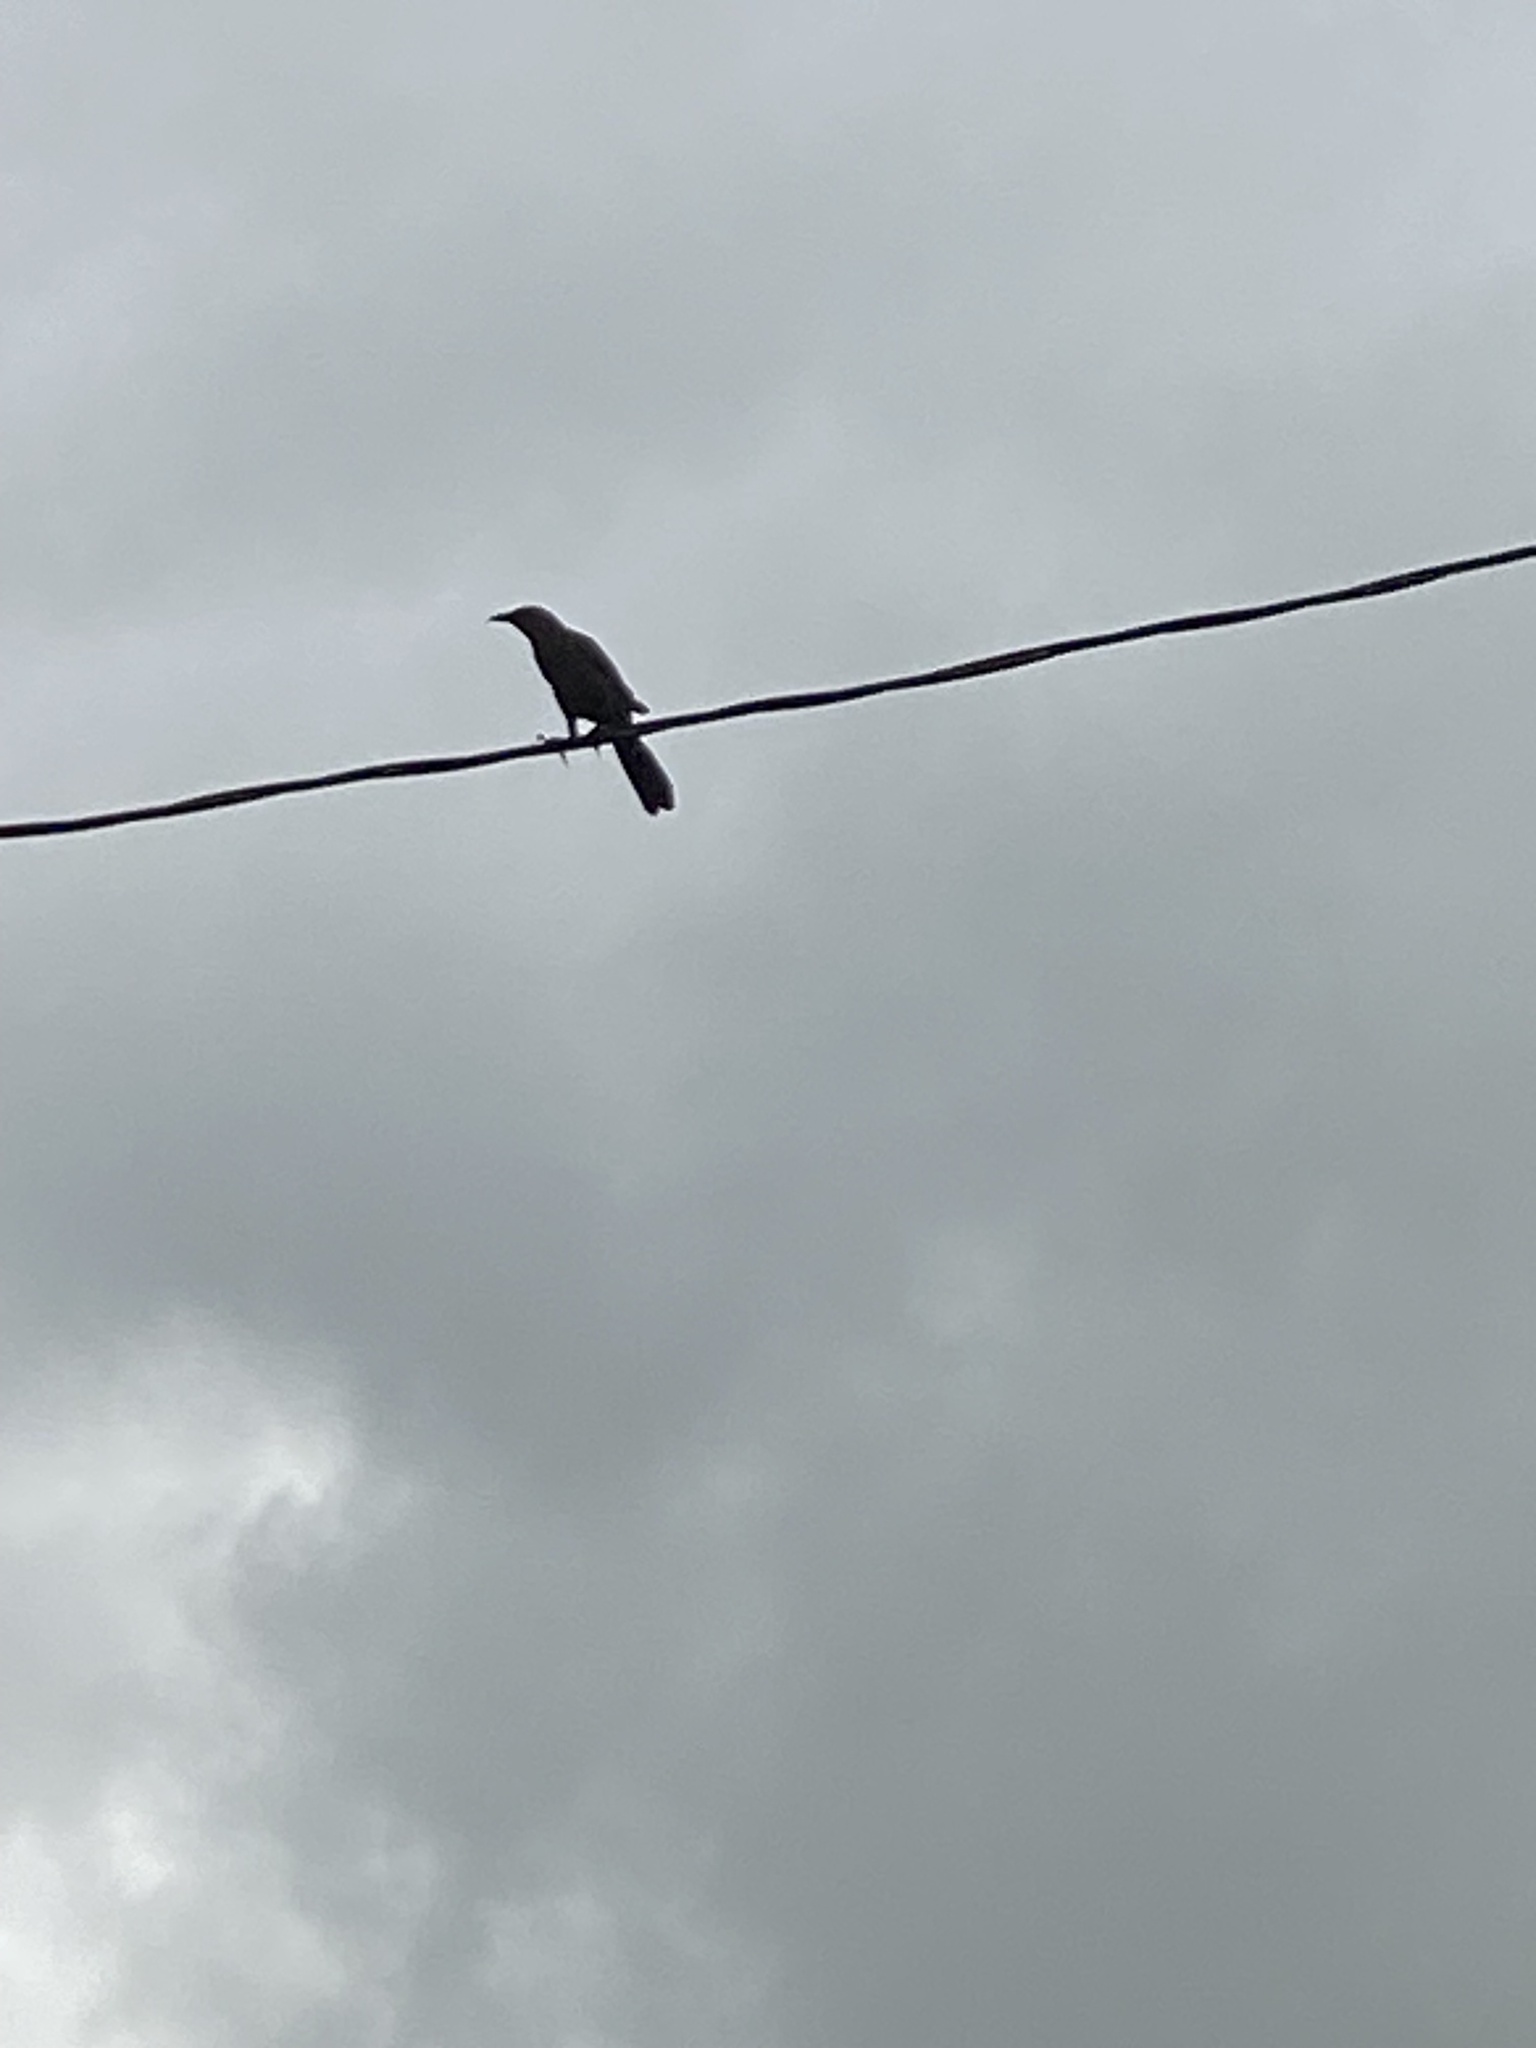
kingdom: Animalia
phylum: Chordata
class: Aves
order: Passeriformes
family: Icteridae
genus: Quiscalus
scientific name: Quiscalus mexicanus
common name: Great-tailed grackle
